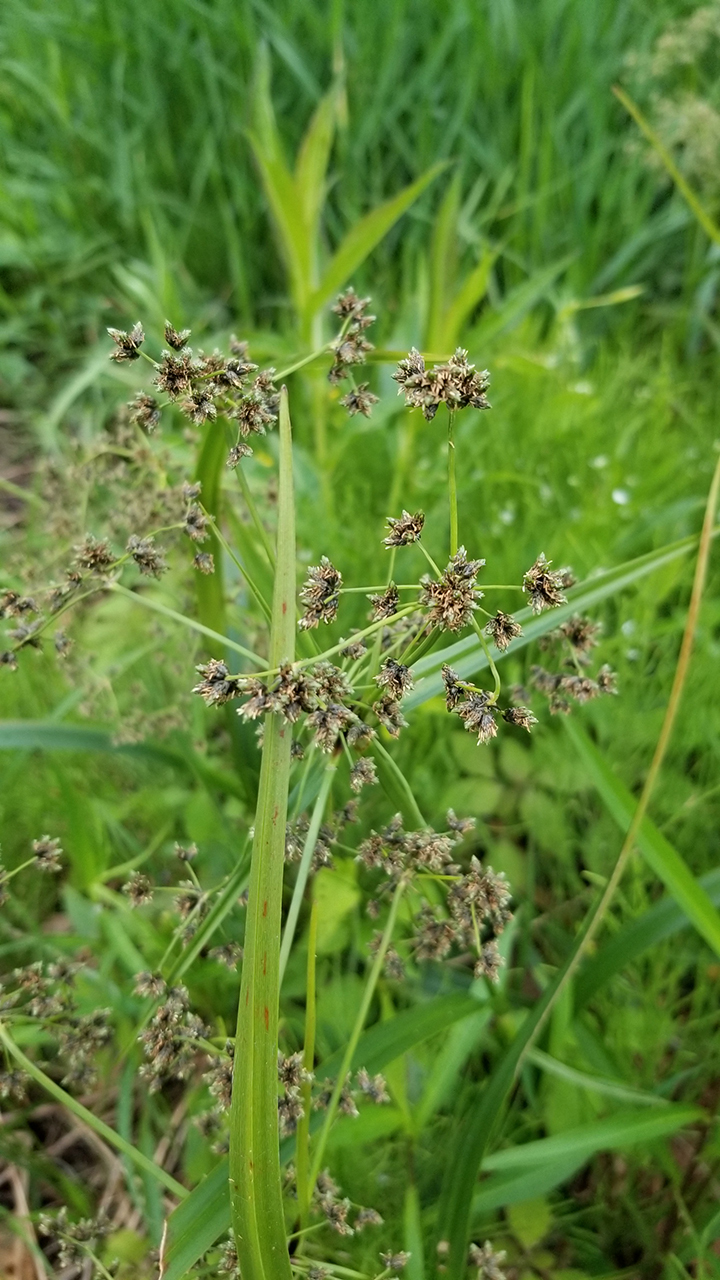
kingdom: Plantae
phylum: Tracheophyta
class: Liliopsida
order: Poales
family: Cyperaceae
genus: Scirpus
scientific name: Scirpus microcarpus
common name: Panicled bulrush
